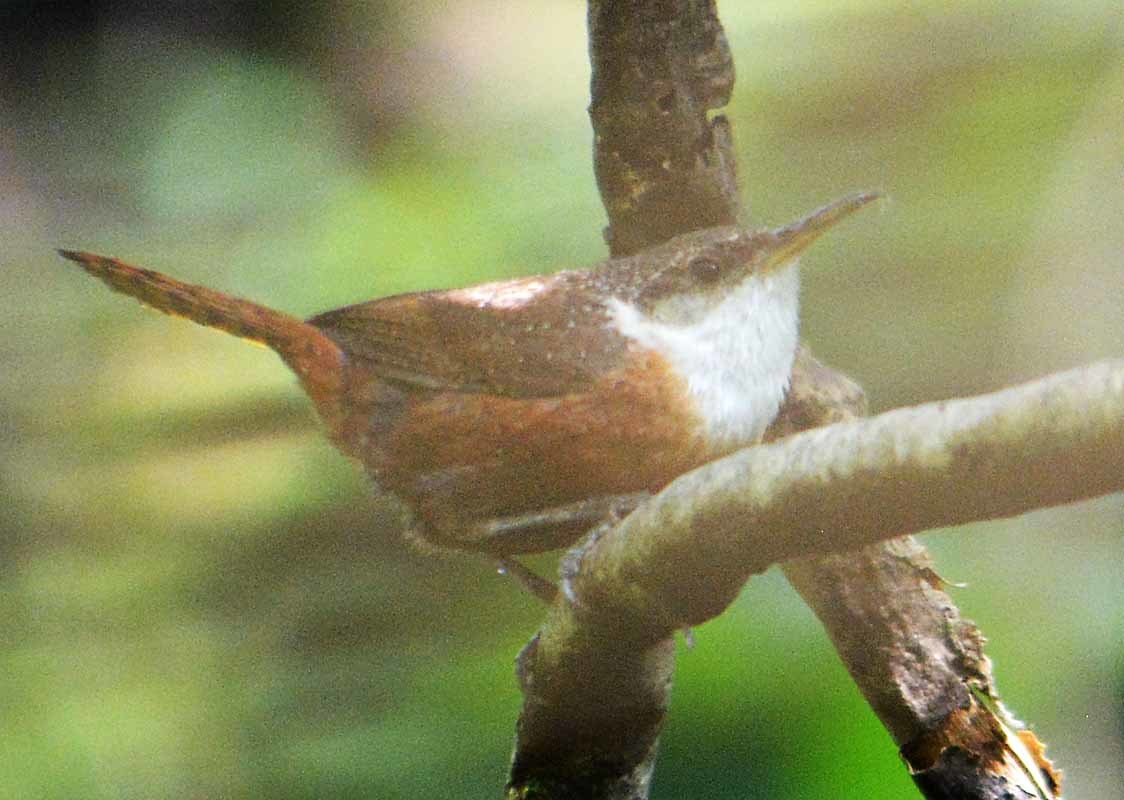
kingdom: Animalia
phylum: Chordata
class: Aves
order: Passeriformes
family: Troglodytidae
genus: Catherpes
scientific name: Catherpes mexicanus
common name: Canyon wren
